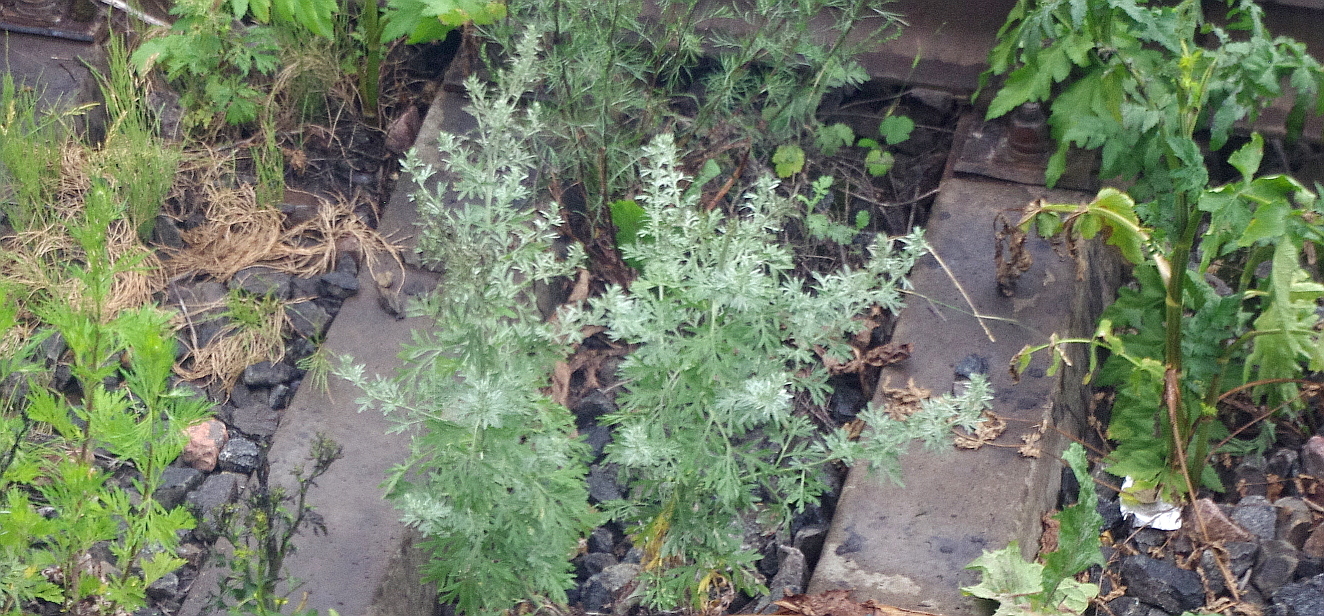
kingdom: Plantae
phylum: Tracheophyta
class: Magnoliopsida
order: Asterales
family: Asteraceae
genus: Artemisia
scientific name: Artemisia absinthium
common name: Wormwood
